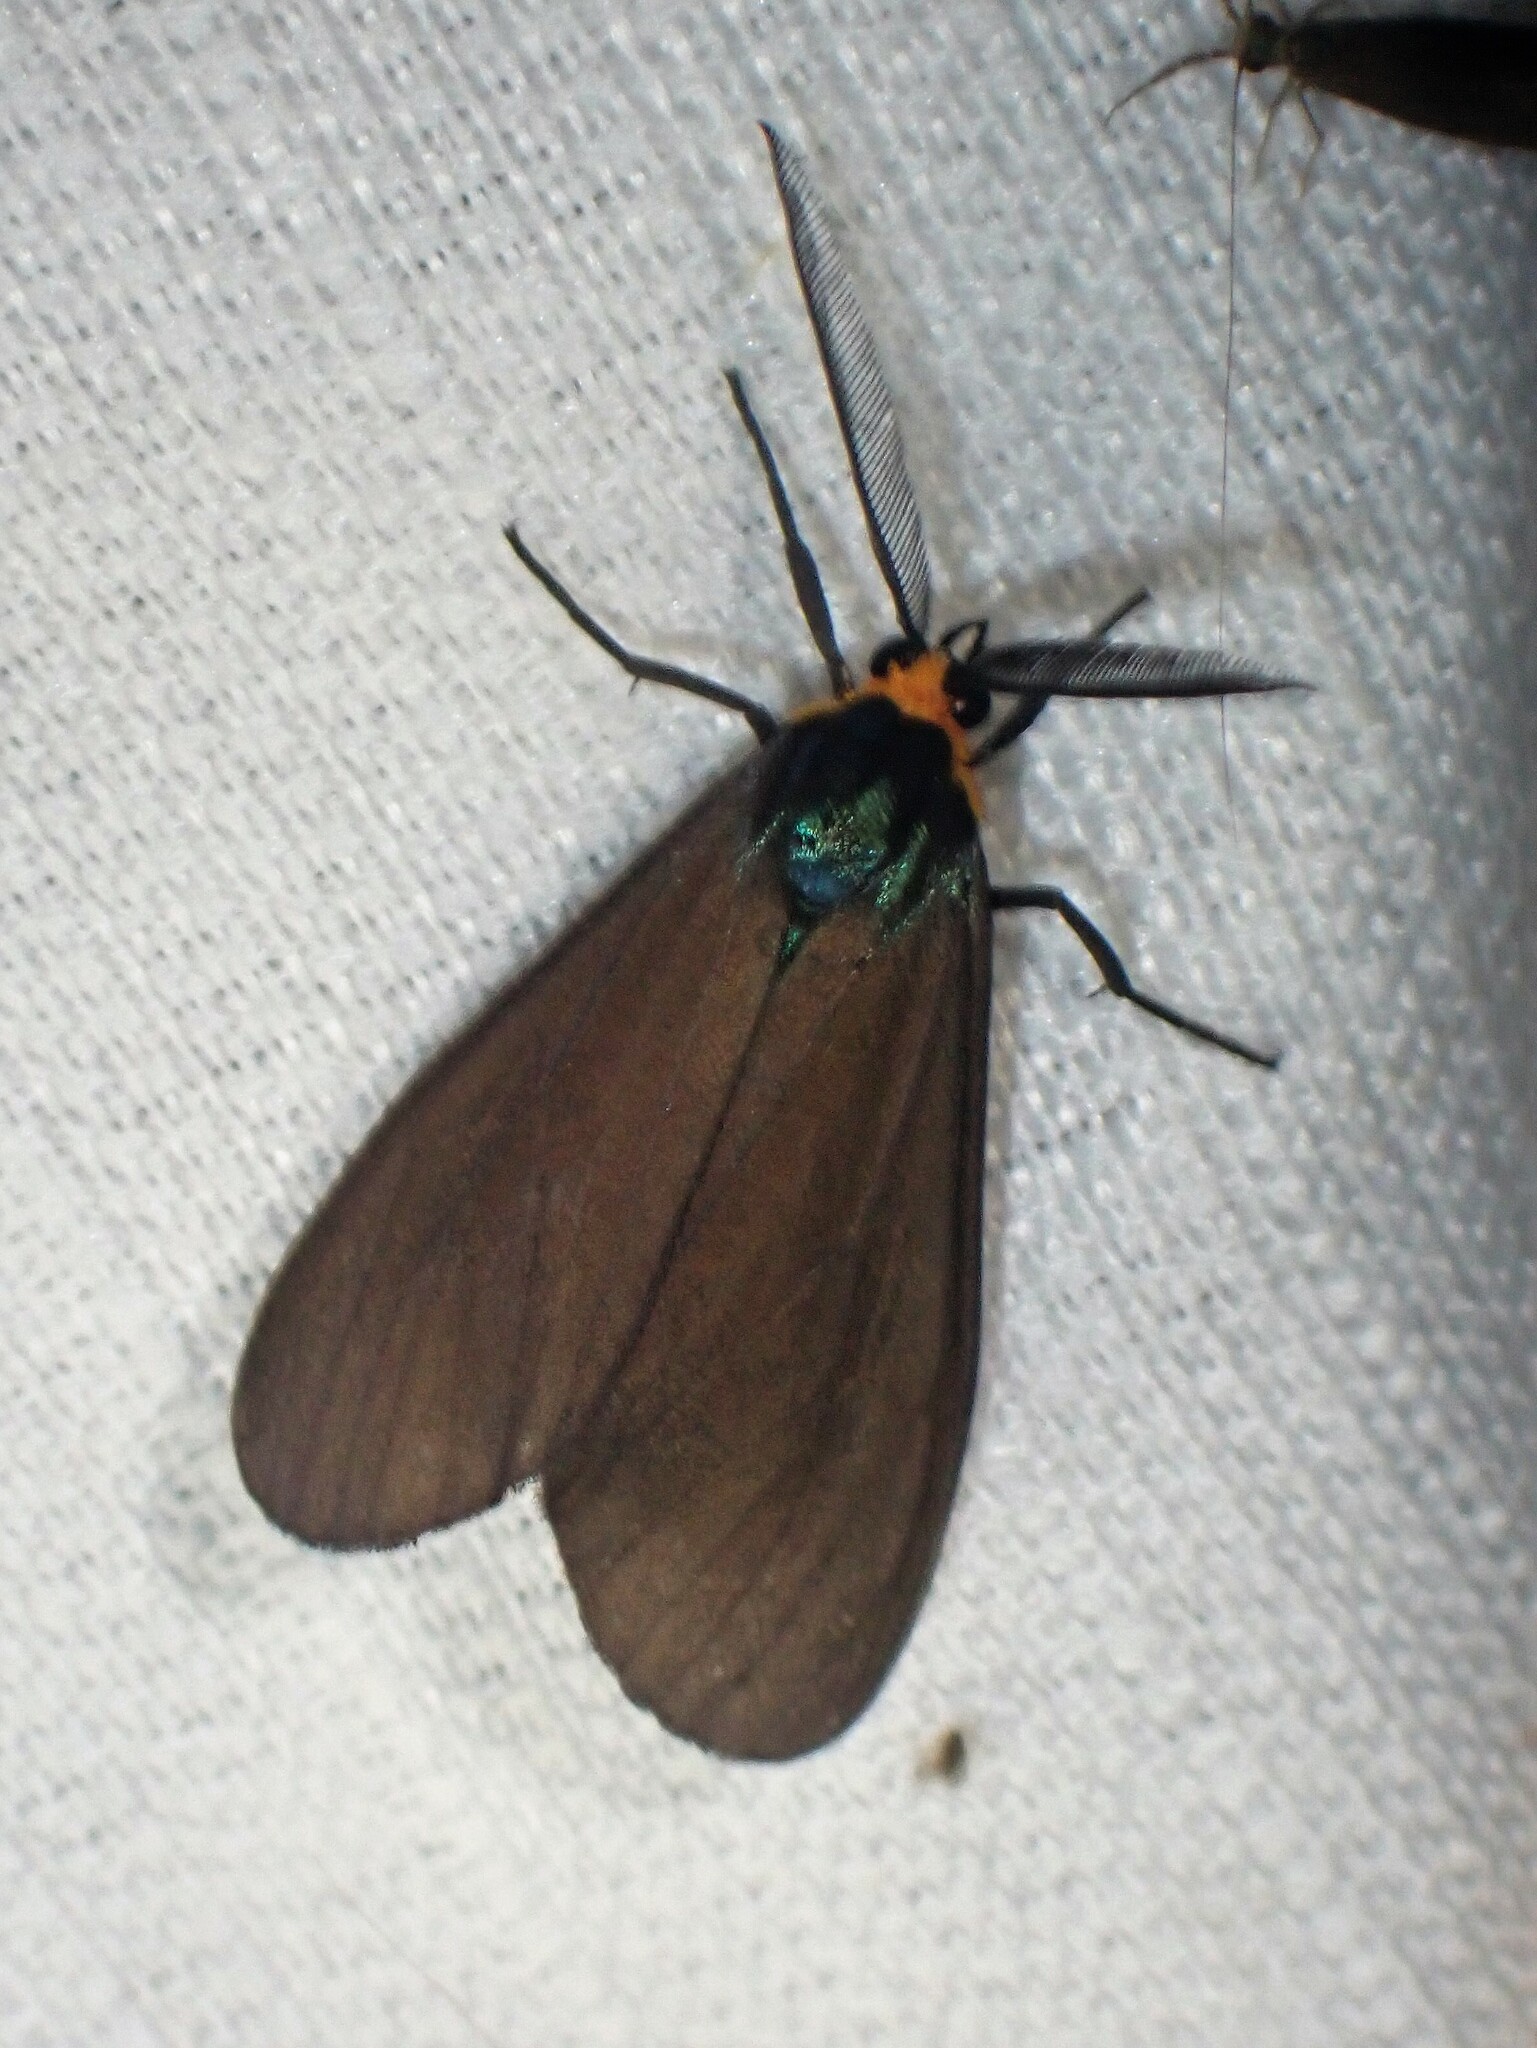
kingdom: Animalia
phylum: Arthropoda
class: Insecta
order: Lepidoptera
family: Erebidae
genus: Ctenucha
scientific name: Ctenucha virginica
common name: Virginia ctenucha moth
